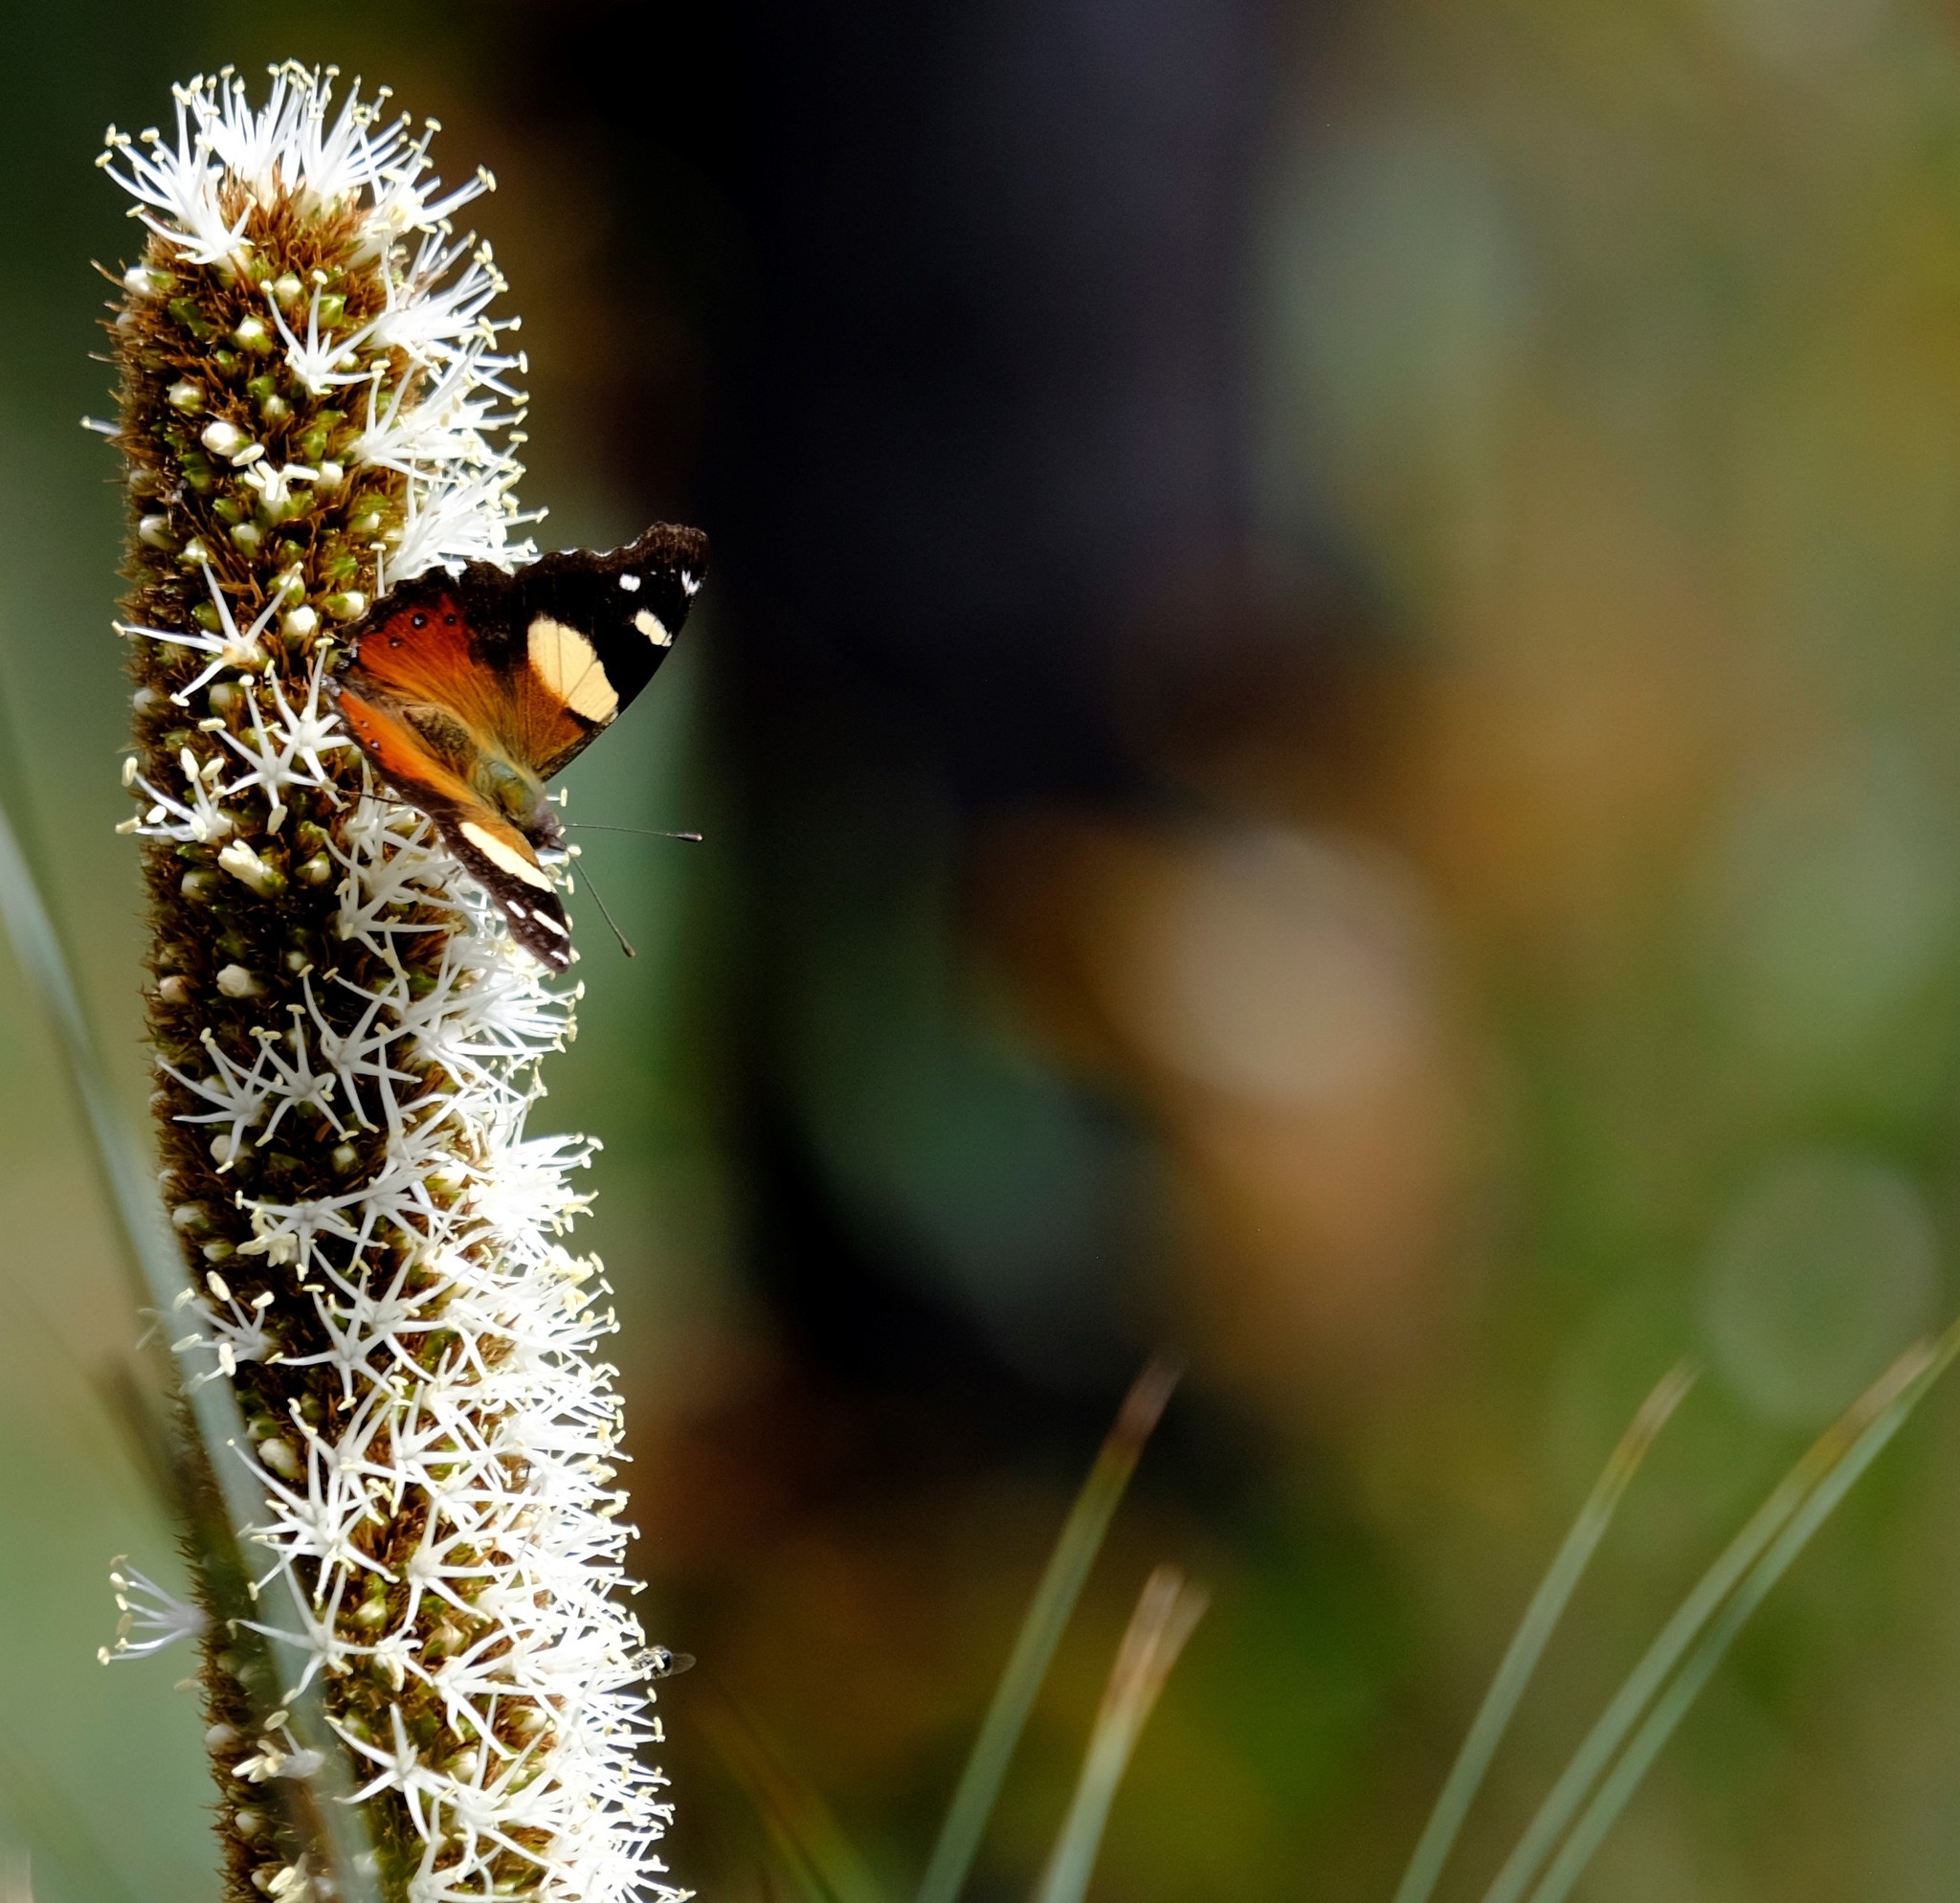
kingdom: Animalia
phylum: Arthropoda
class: Insecta
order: Lepidoptera
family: Nymphalidae
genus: Vanessa
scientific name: Vanessa itea
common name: Yellow admiral
